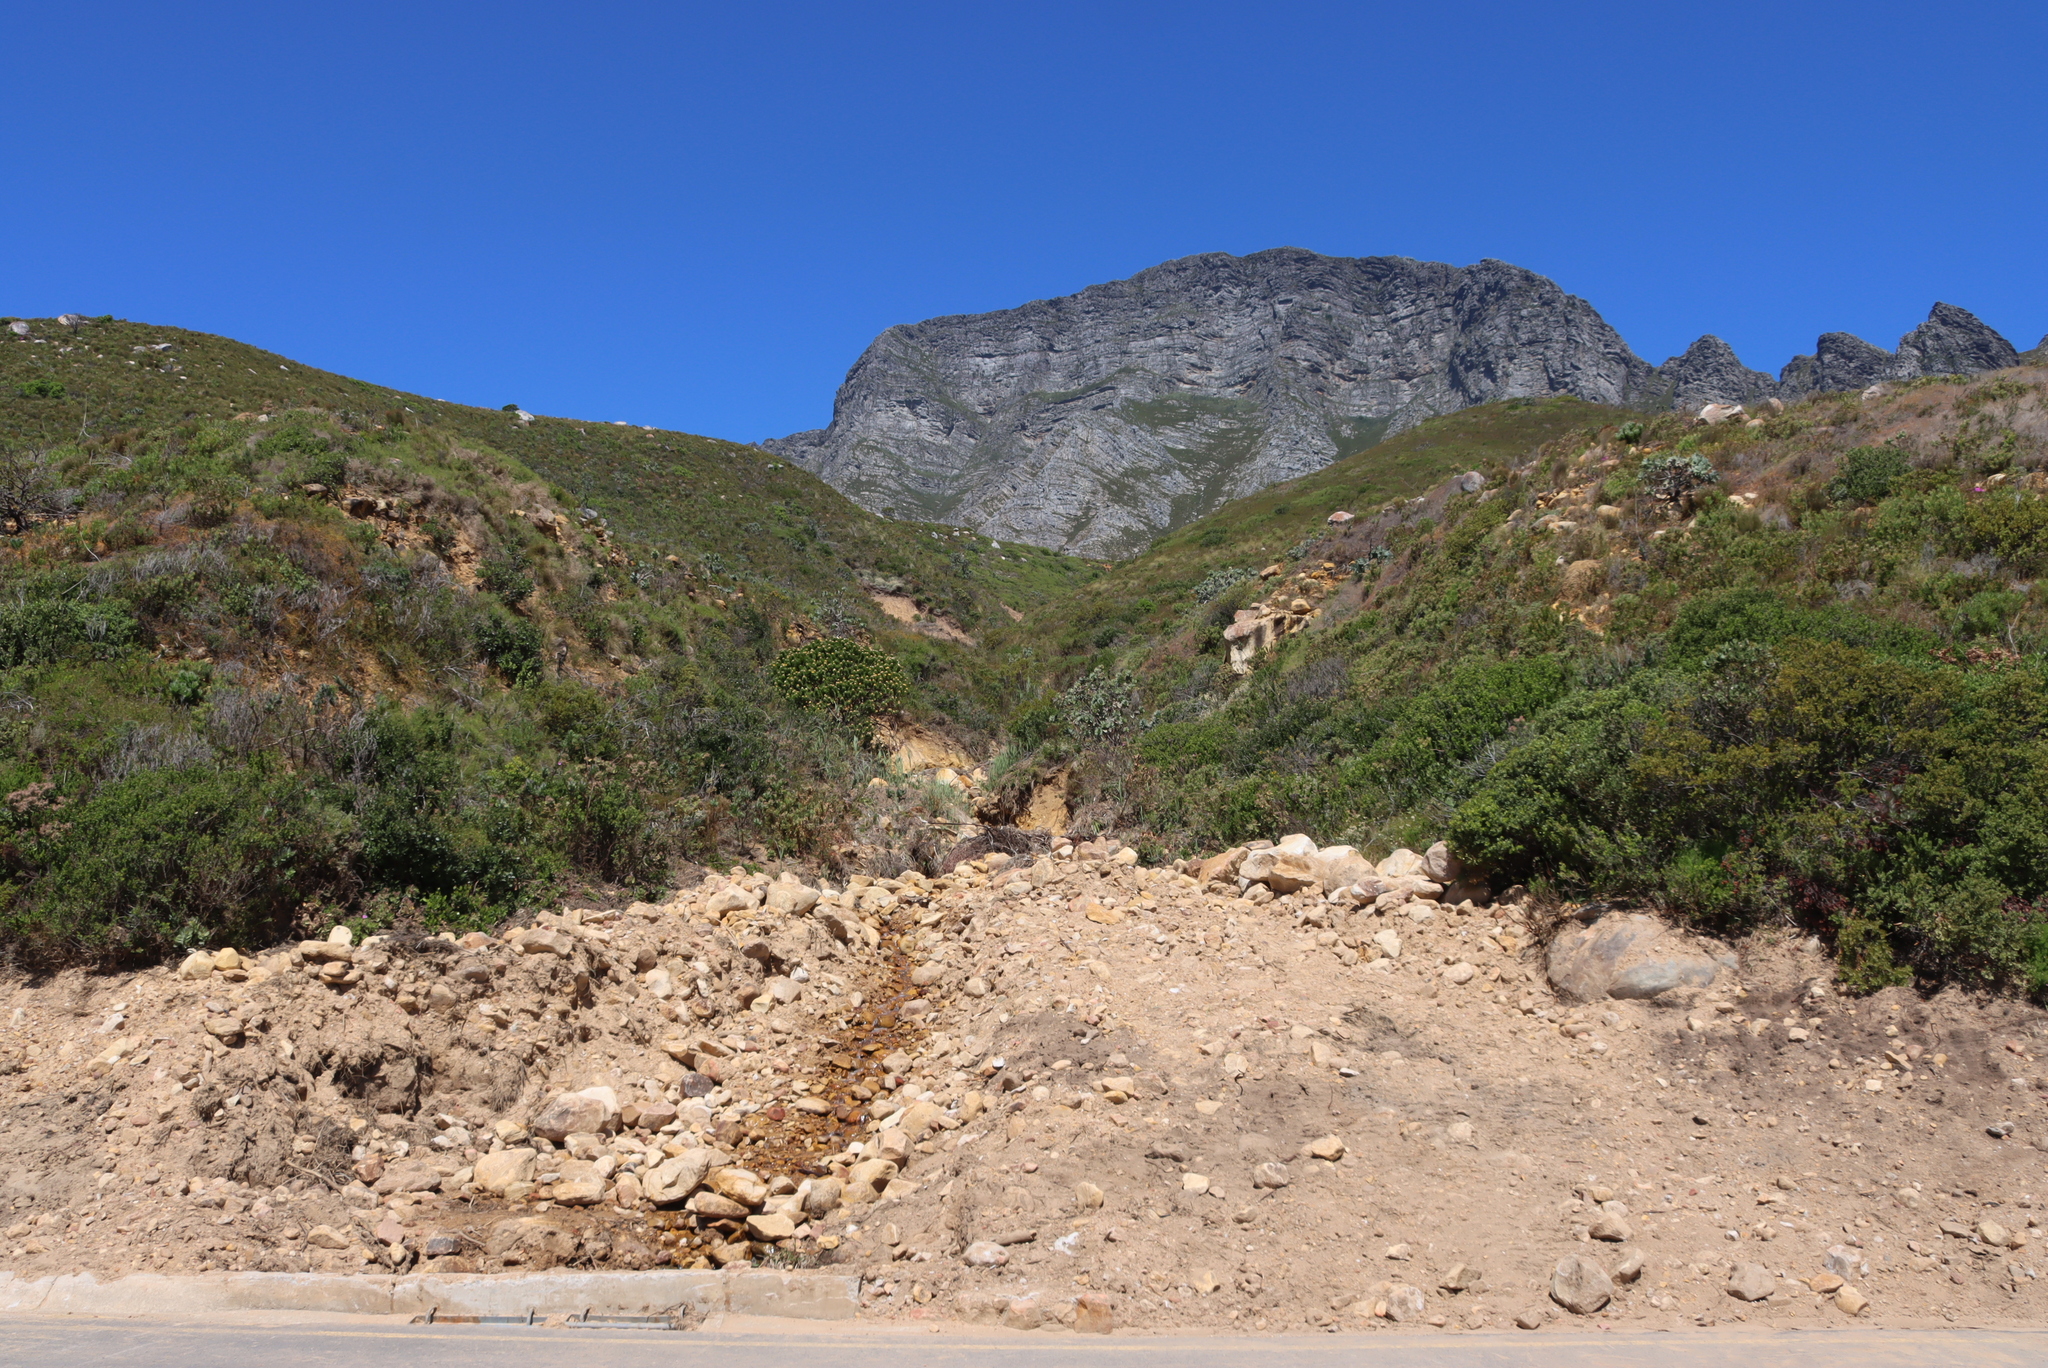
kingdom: Plantae
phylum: Tracheophyta
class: Magnoliopsida
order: Proteales
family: Proteaceae
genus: Protea
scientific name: Protea nitida
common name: Tree protea
